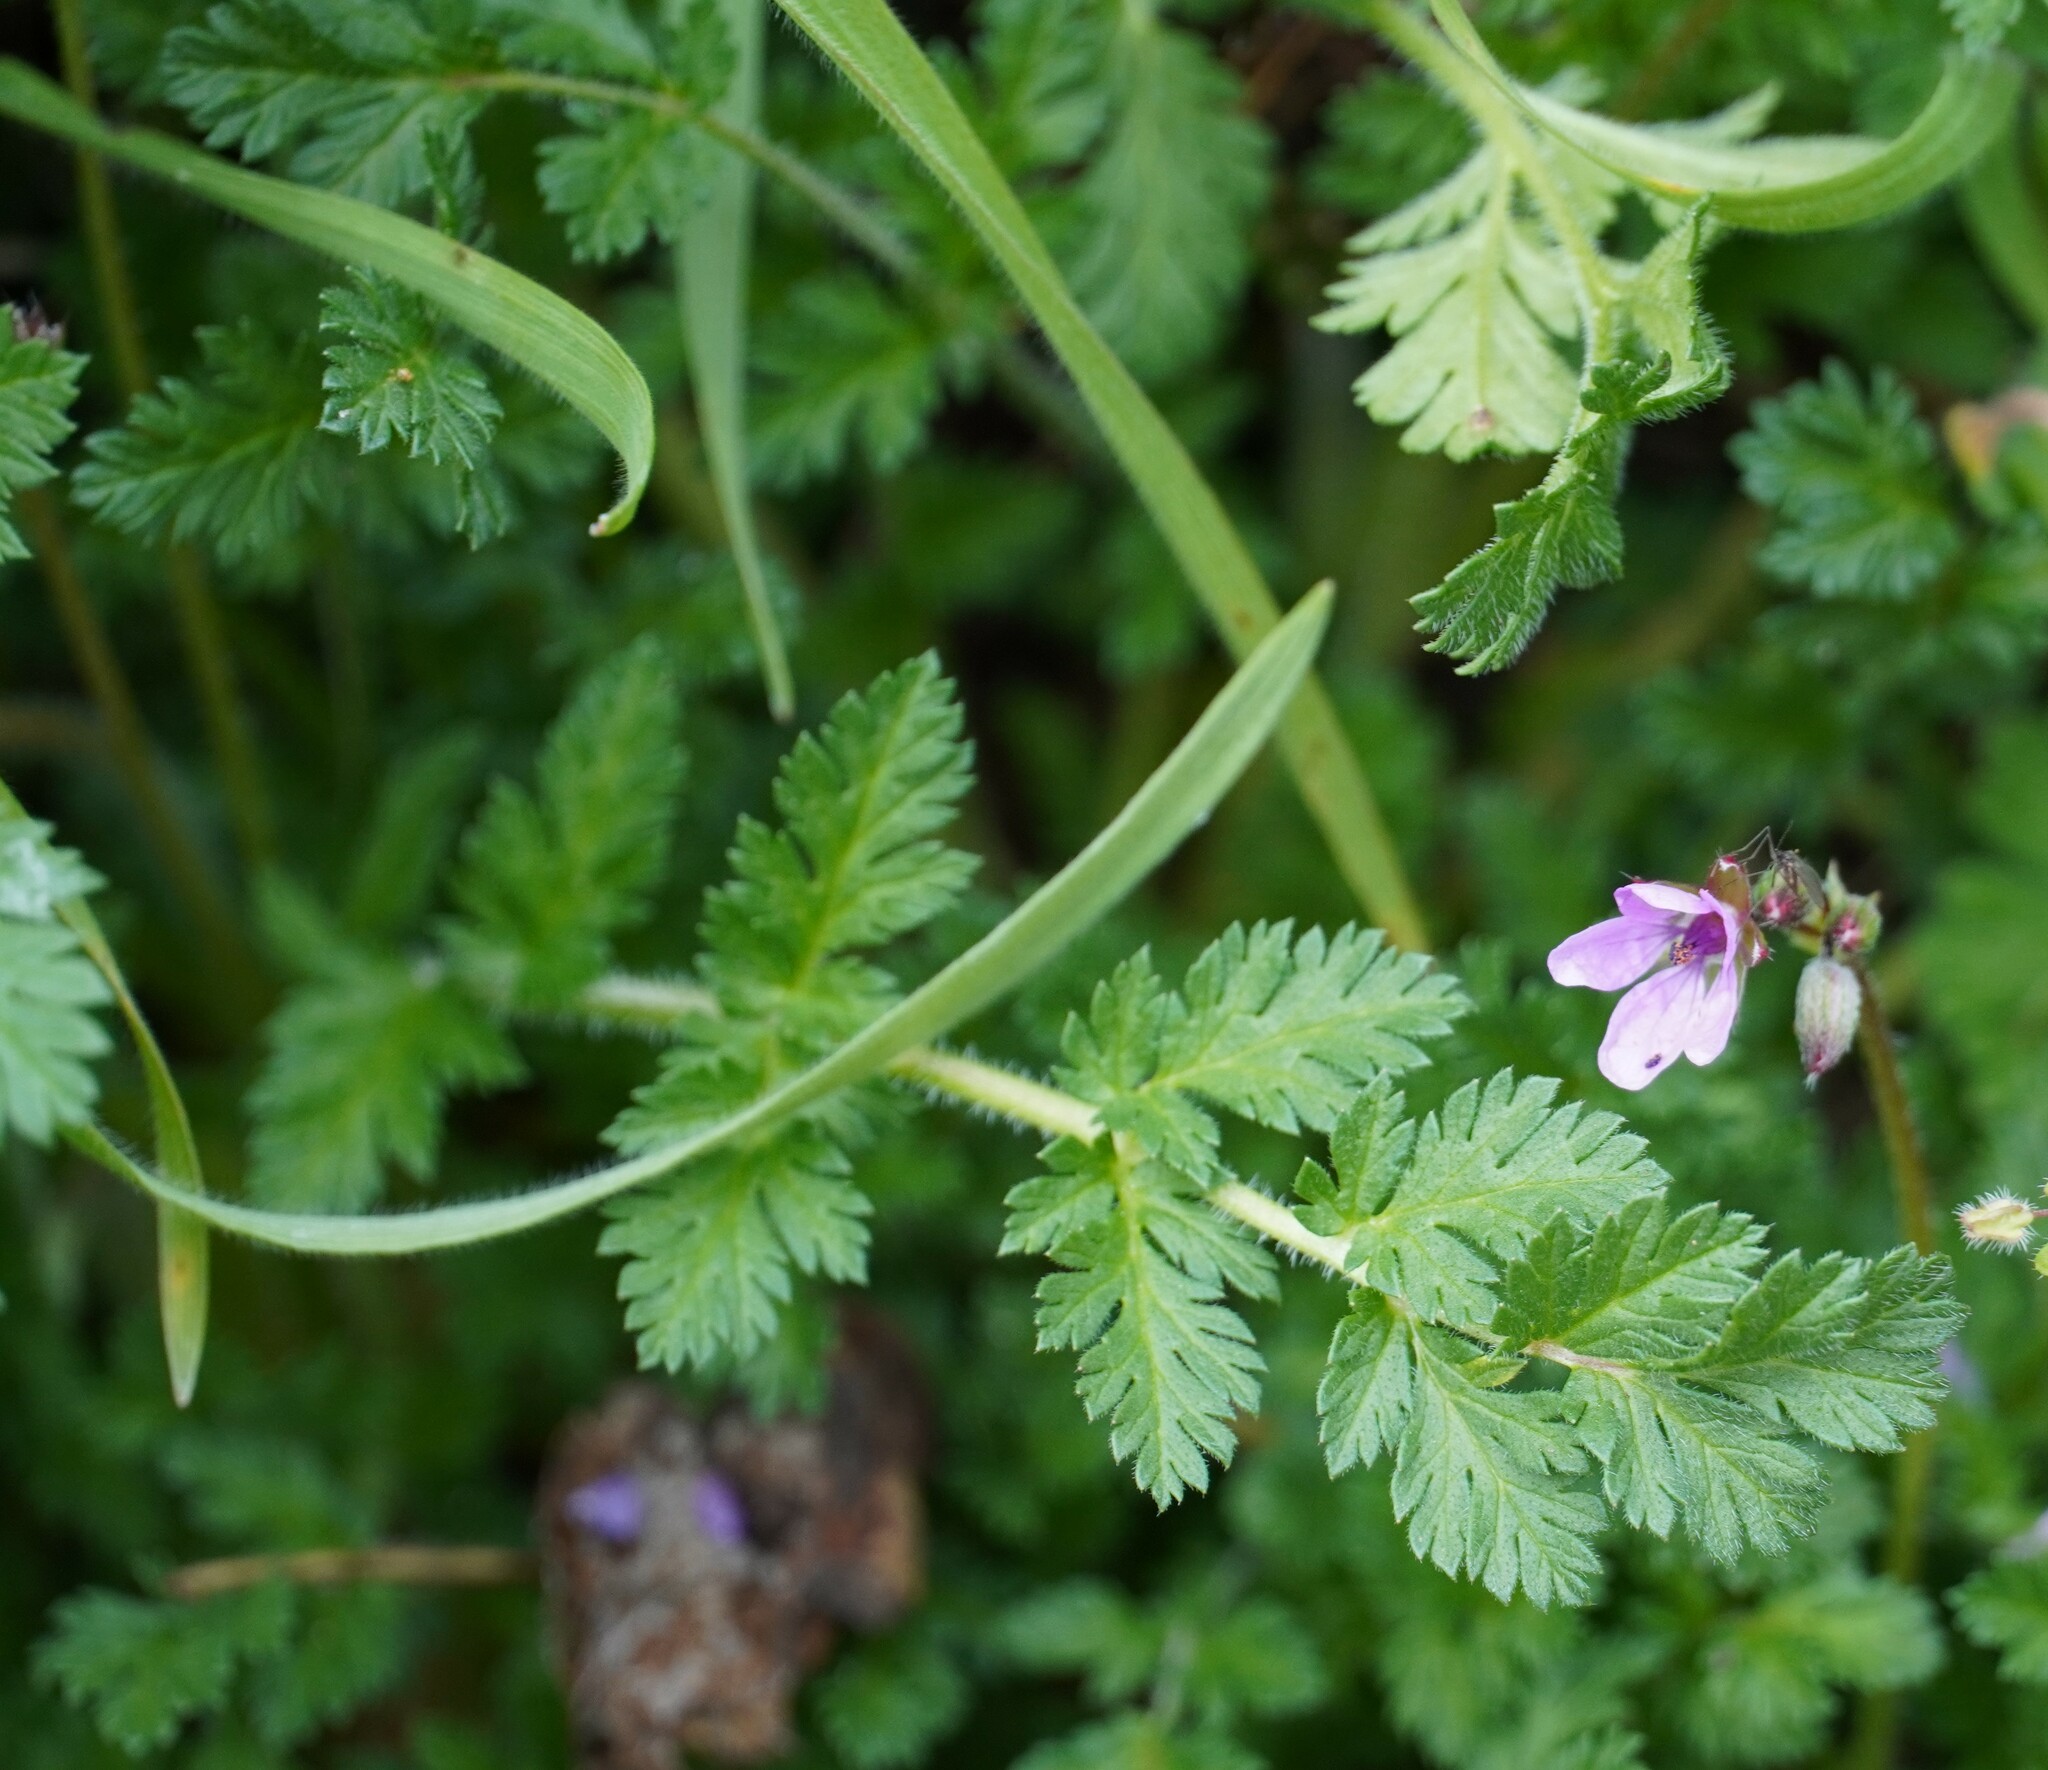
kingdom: Plantae
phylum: Tracheophyta
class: Magnoliopsida
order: Geraniales
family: Geraniaceae
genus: Erodium
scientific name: Erodium cicutarium
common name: Common stork's-bill
